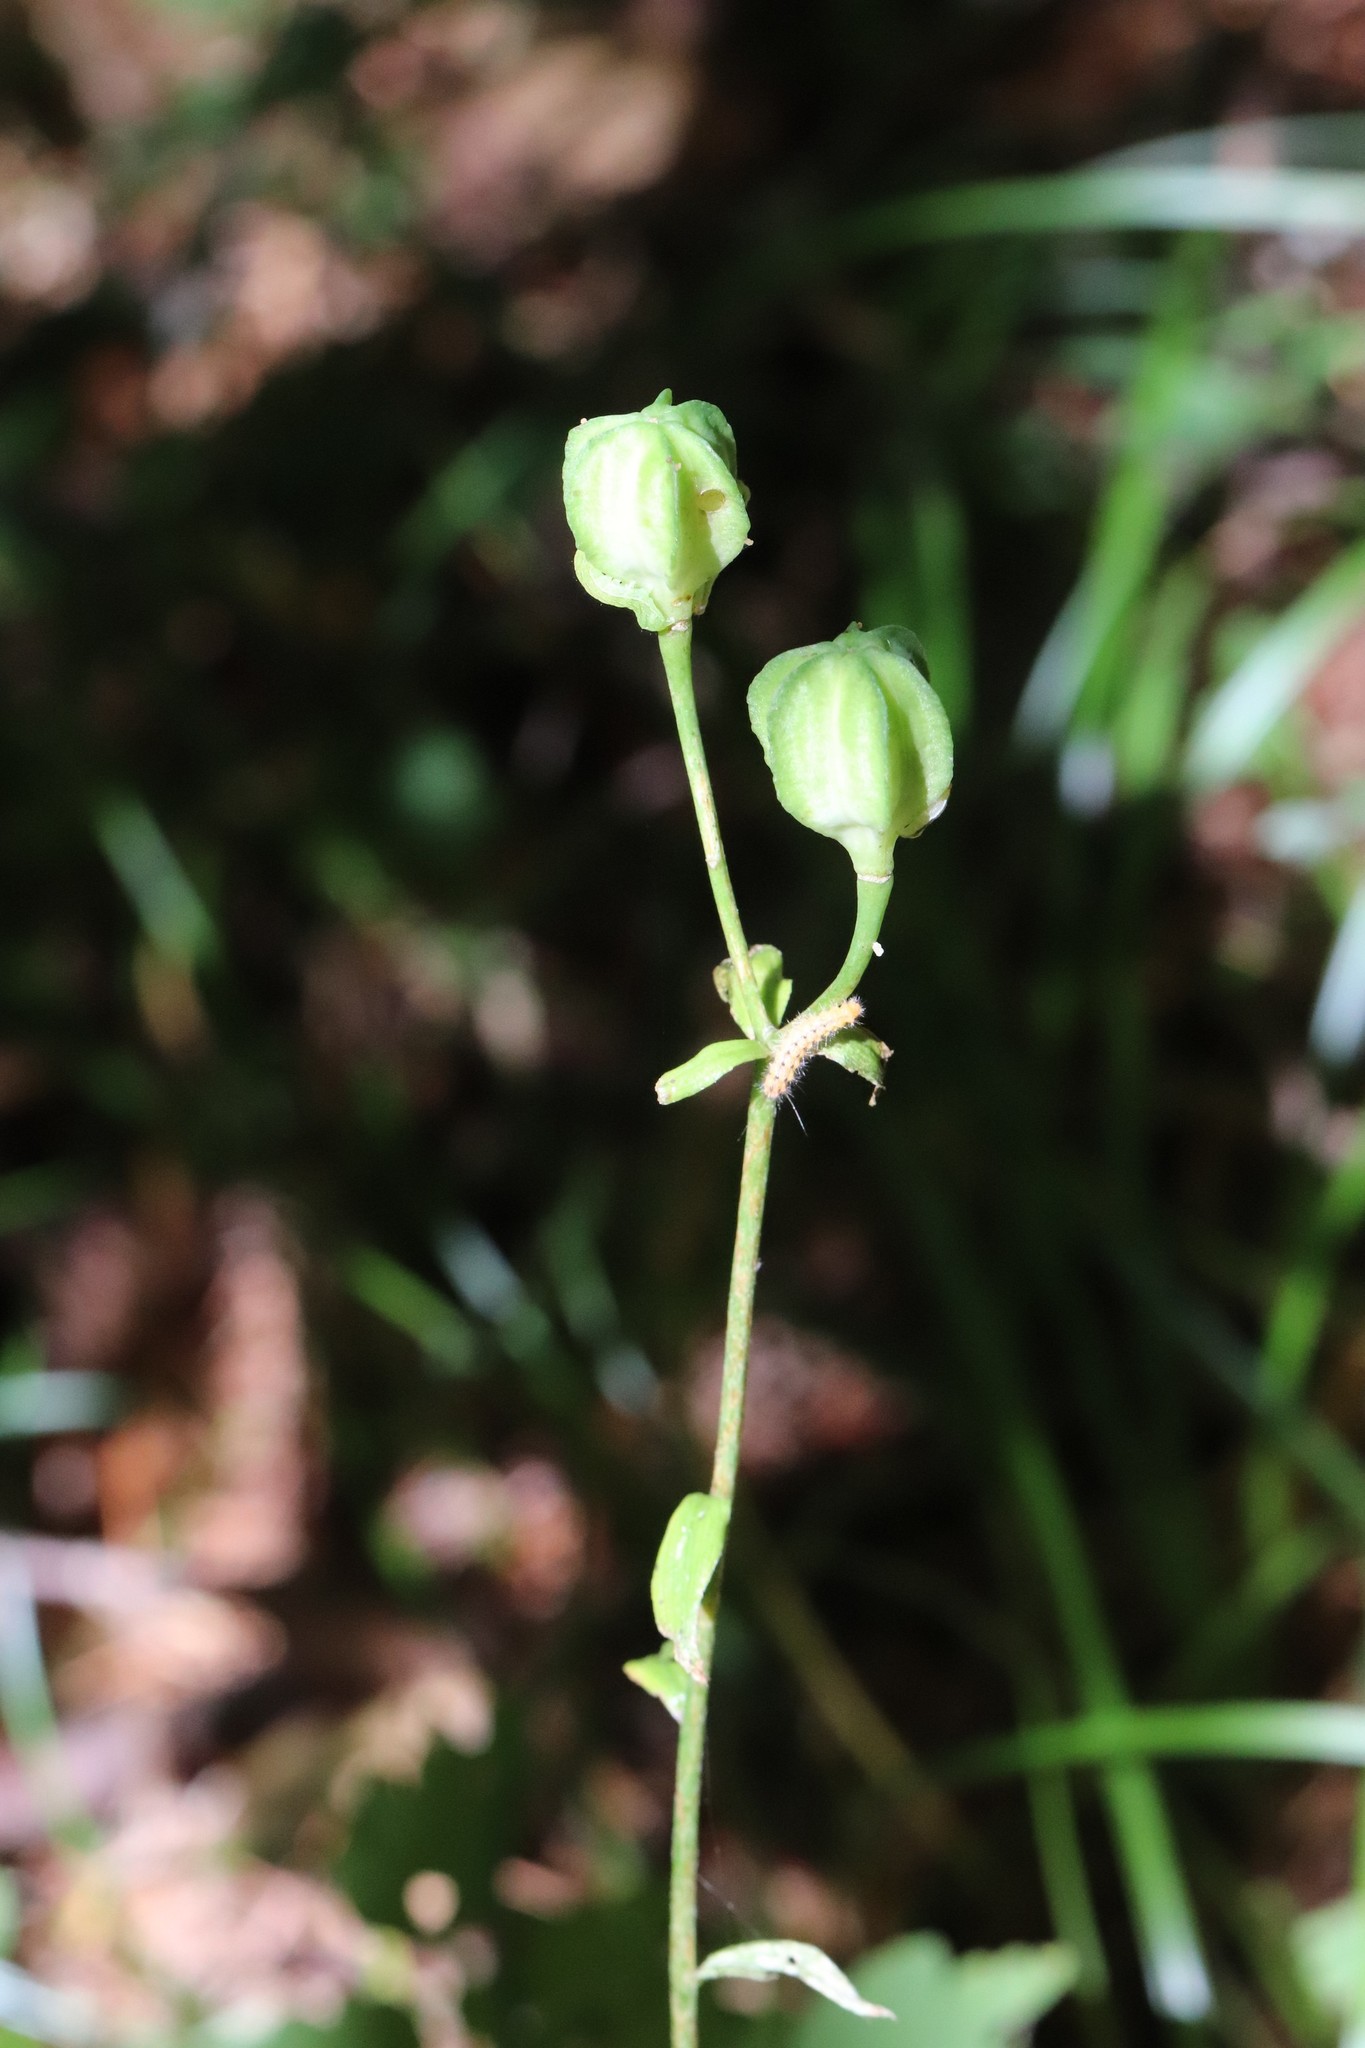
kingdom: Plantae
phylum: Tracheophyta
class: Liliopsida
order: Liliales
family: Liliaceae
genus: Lilium
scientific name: Lilium distichum
